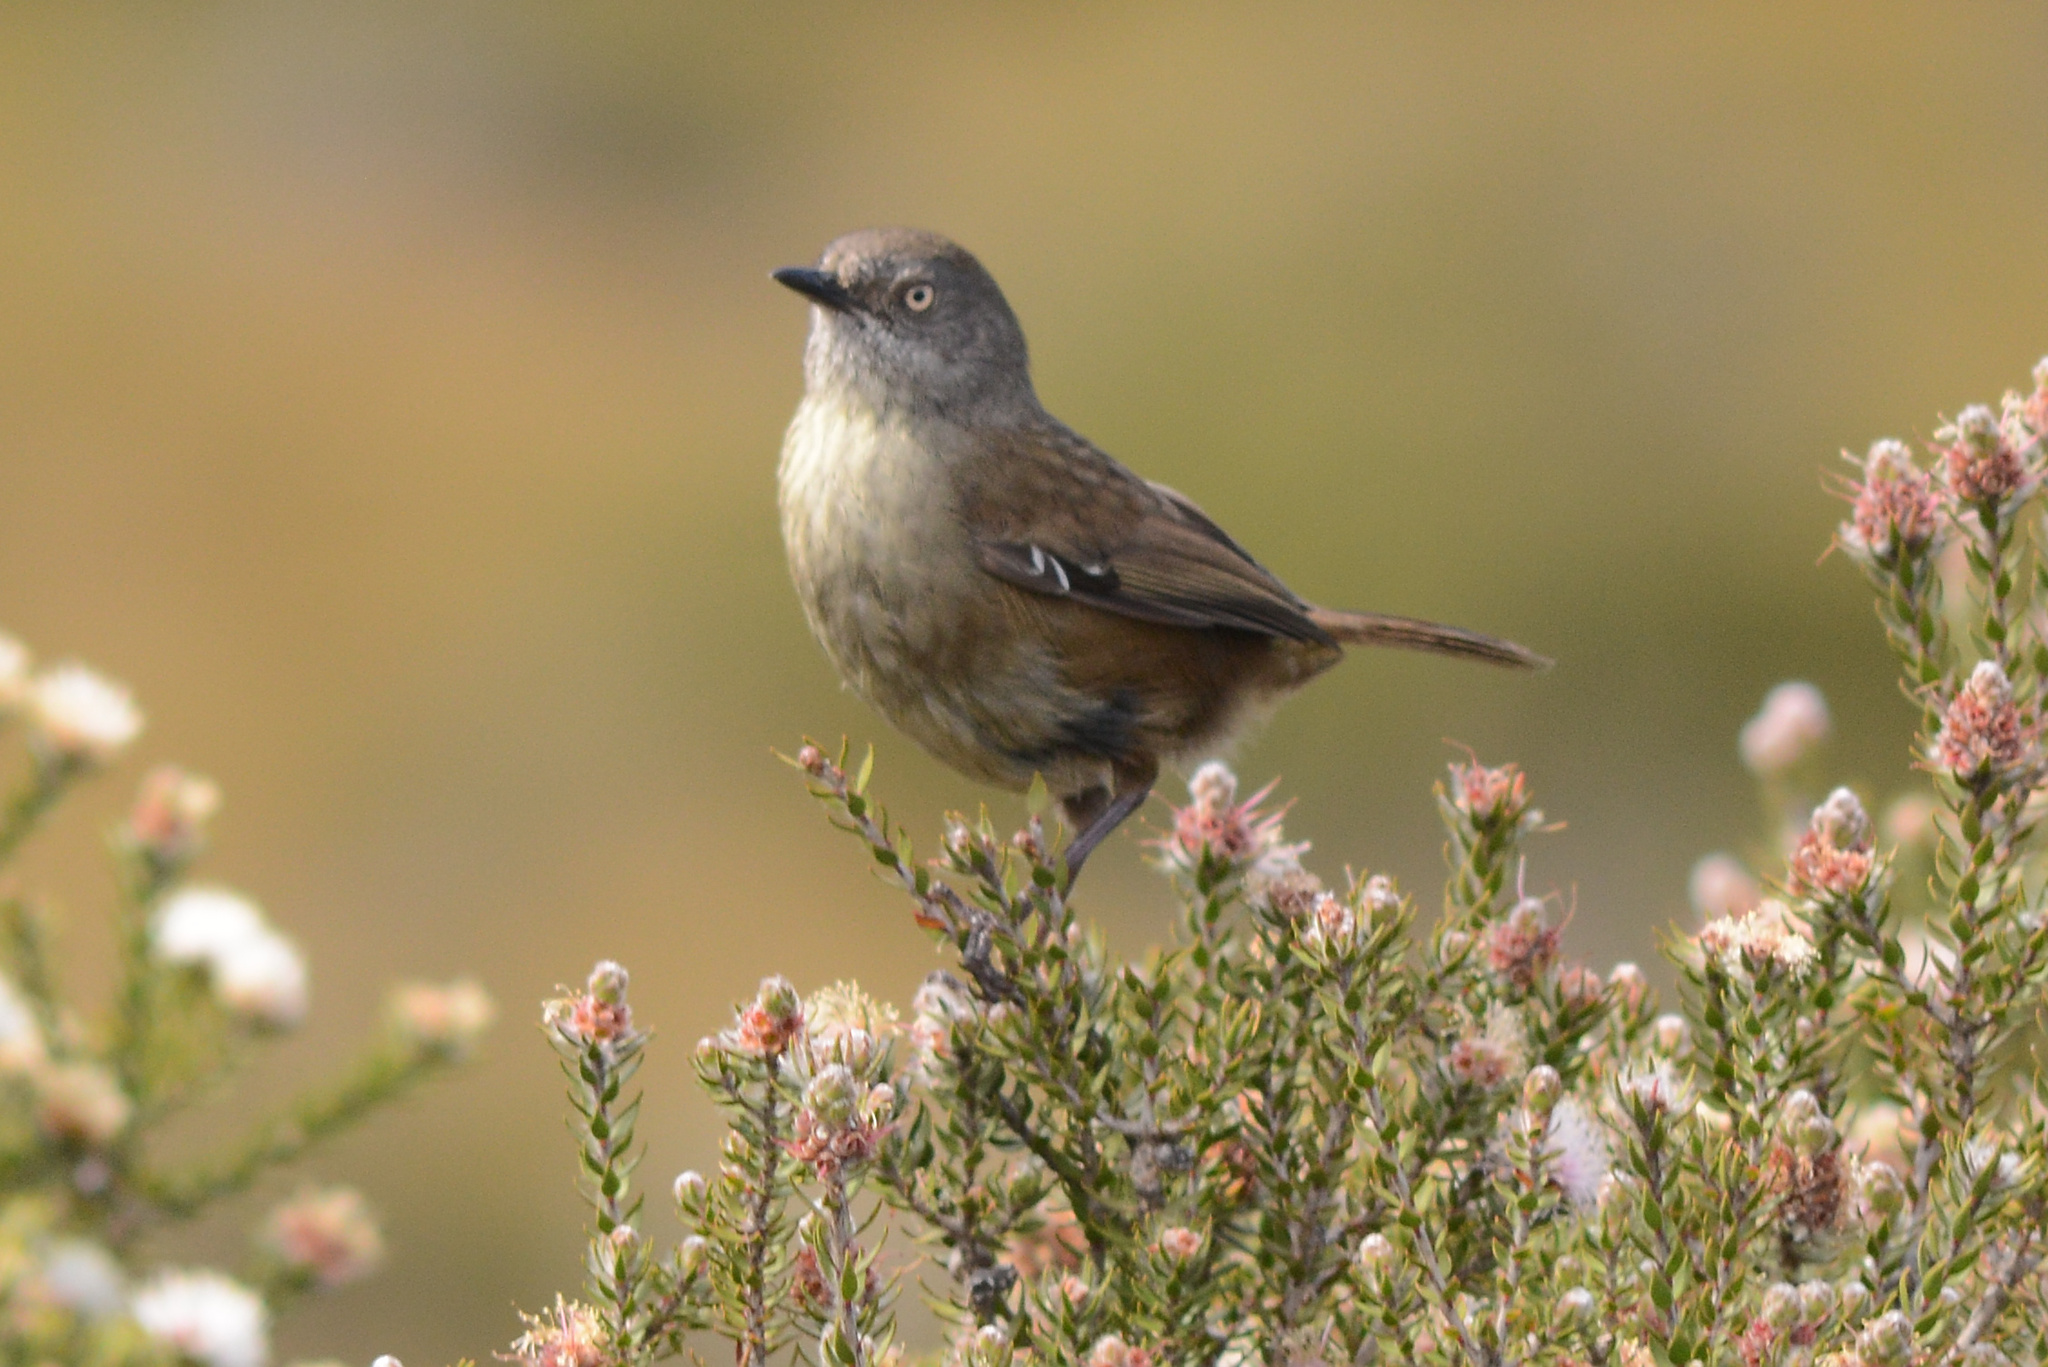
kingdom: Animalia
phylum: Chordata
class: Aves
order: Passeriformes
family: Acanthizidae
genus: Sericornis
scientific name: Sericornis humilis
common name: Tasmanian scrubwren
